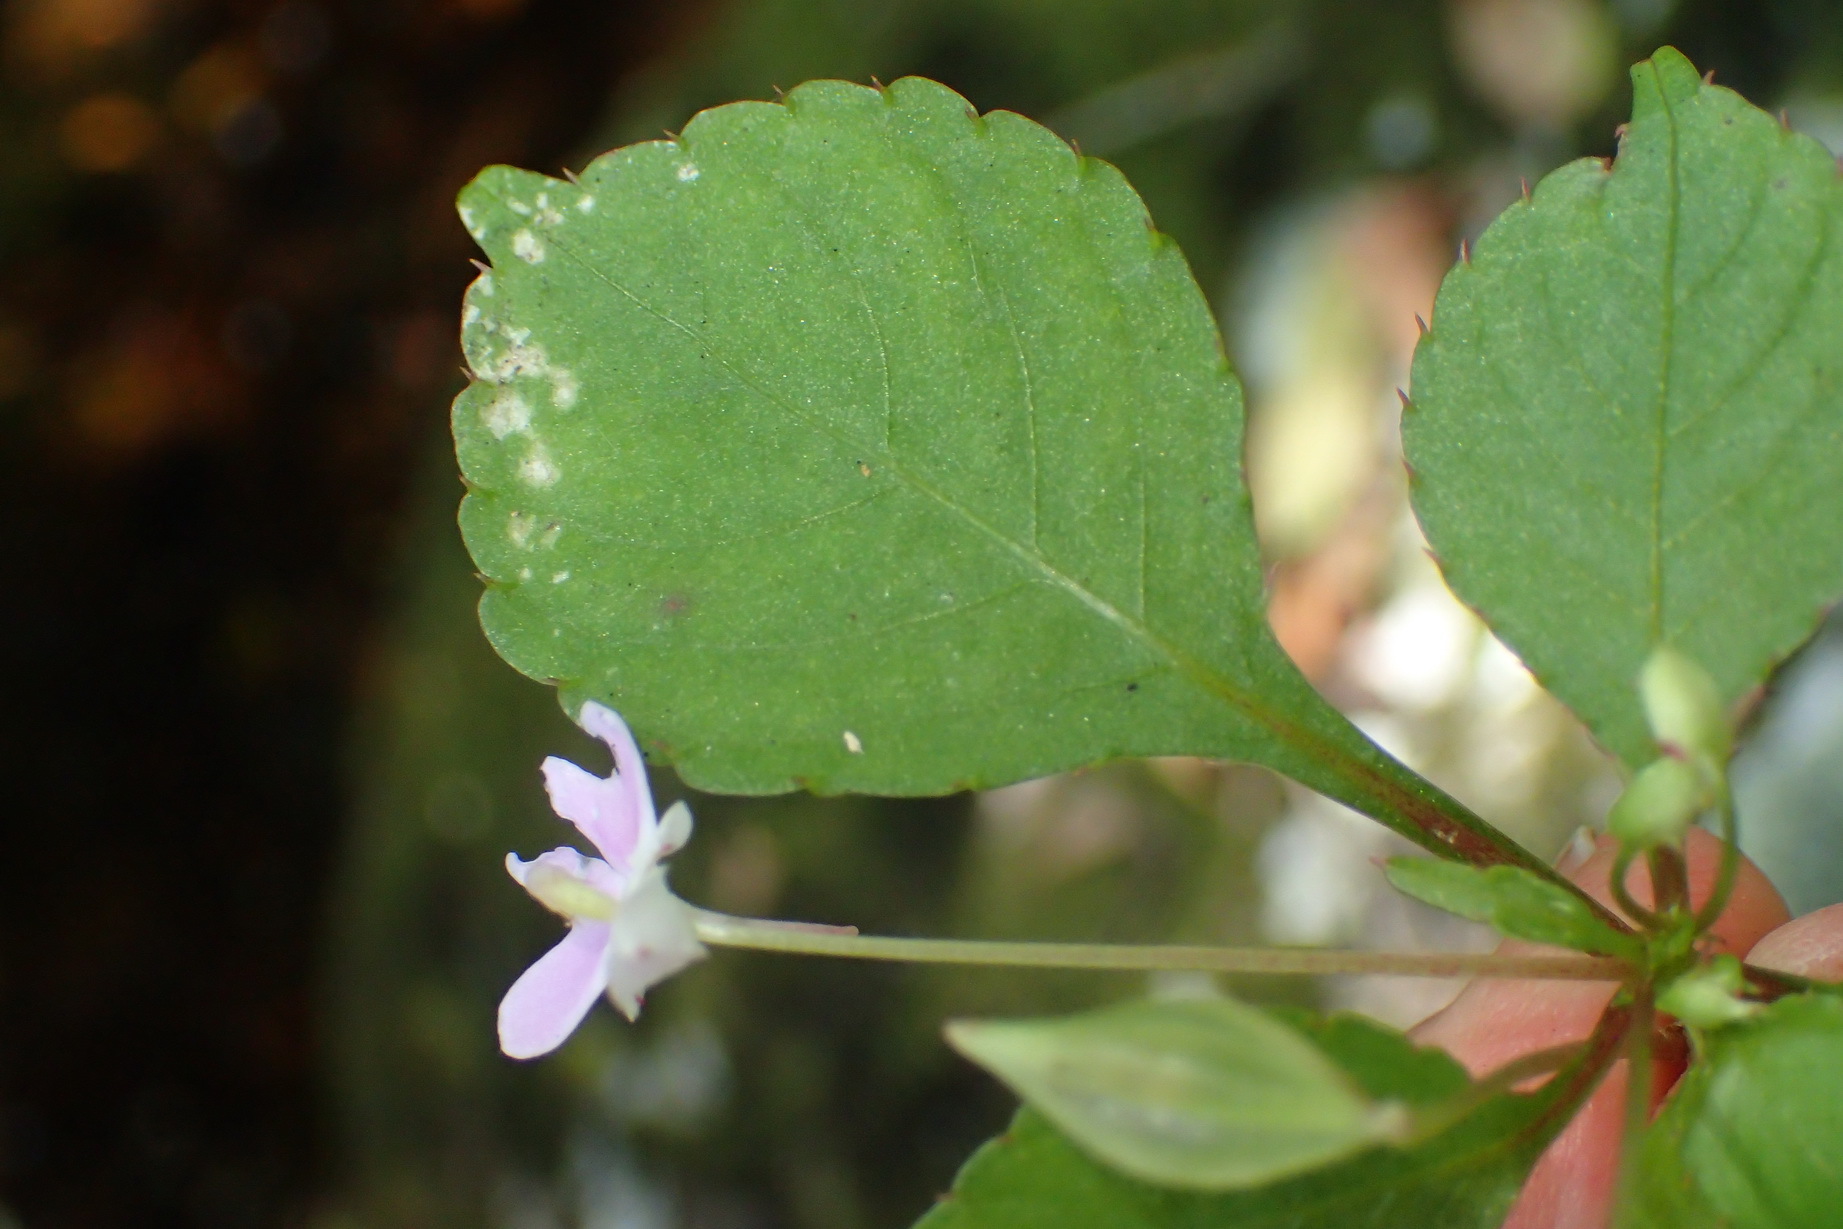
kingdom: Plantae
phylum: Tracheophyta
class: Magnoliopsida
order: Ericales
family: Balsaminaceae
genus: Impatiens
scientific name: Impatiens hochstetteri
